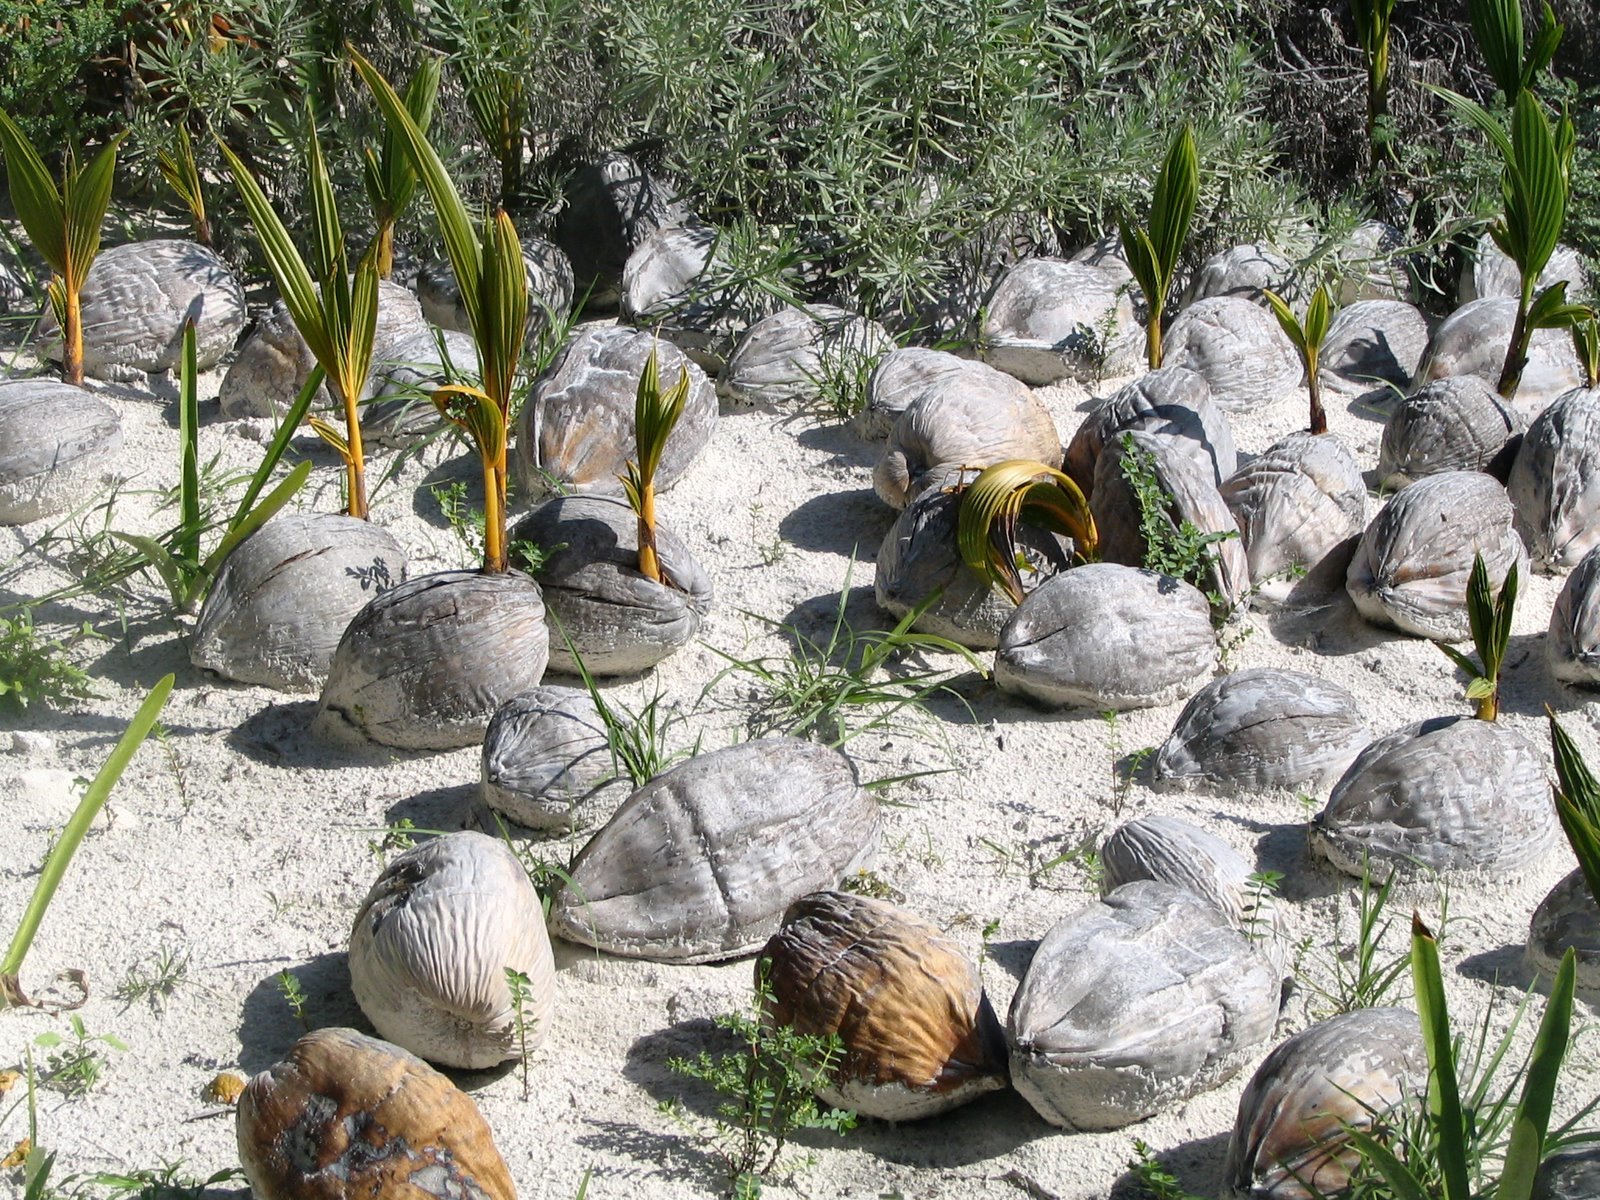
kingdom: Plantae
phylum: Tracheophyta
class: Liliopsida
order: Arecales
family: Arecaceae
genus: Cocos
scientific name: Cocos nucifera
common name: Coconut palm
